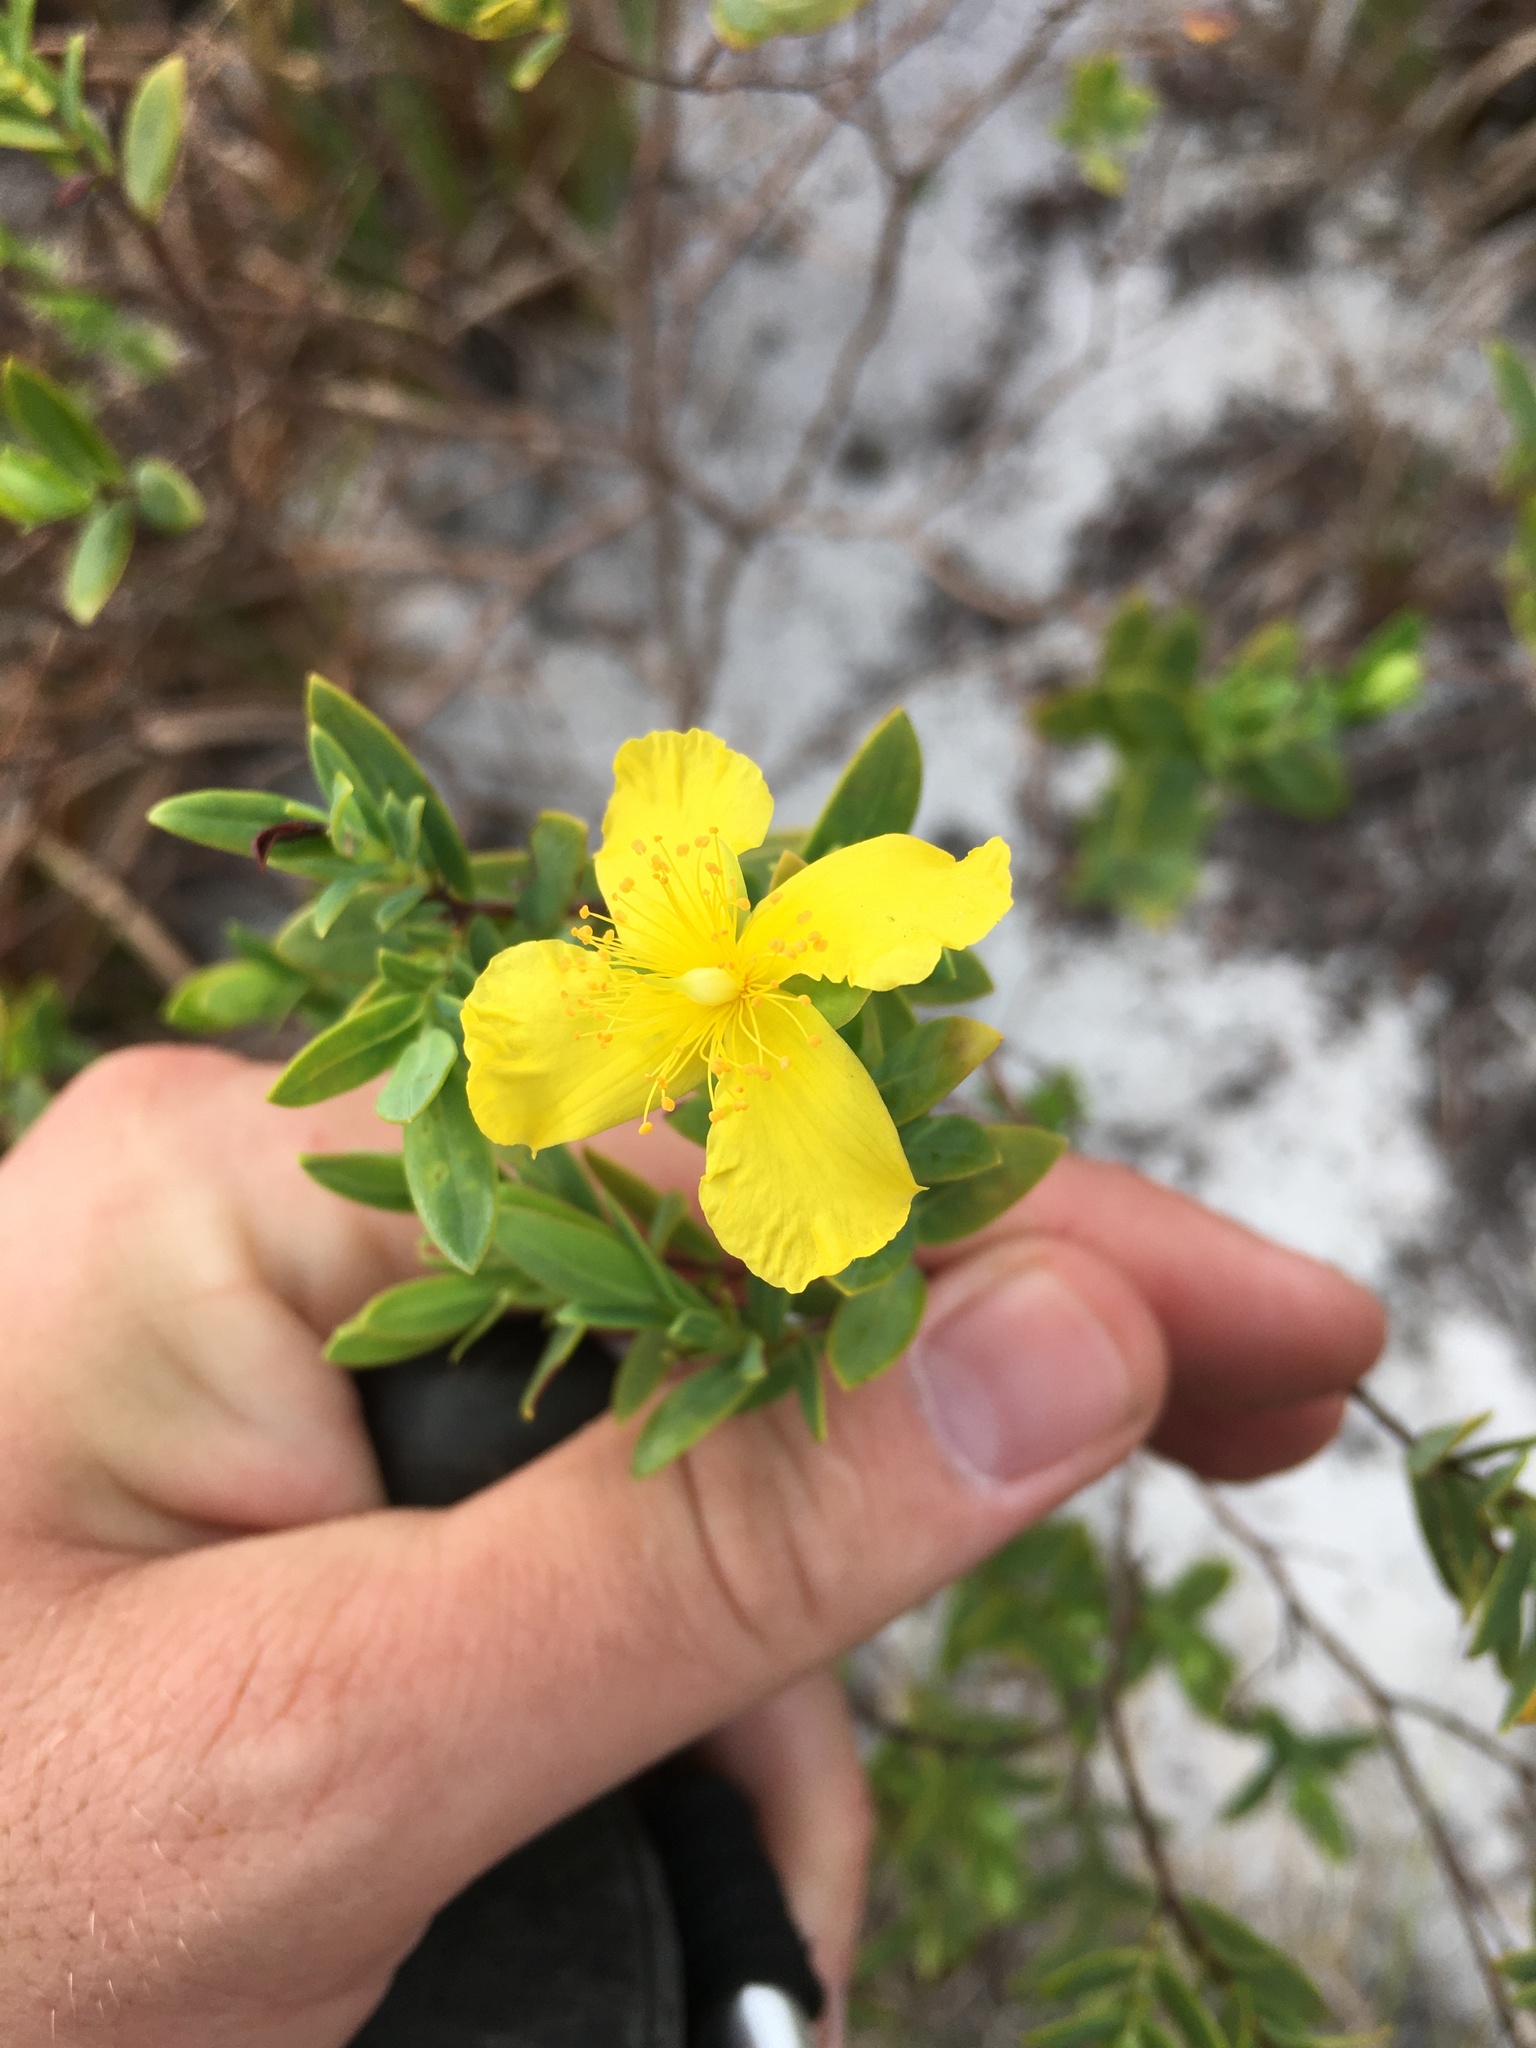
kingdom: Plantae
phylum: Tracheophyta
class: Magnoliopsida
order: Malpighiales
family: Hypericaceae
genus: Hypericum
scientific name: Hypericum edisonianum
